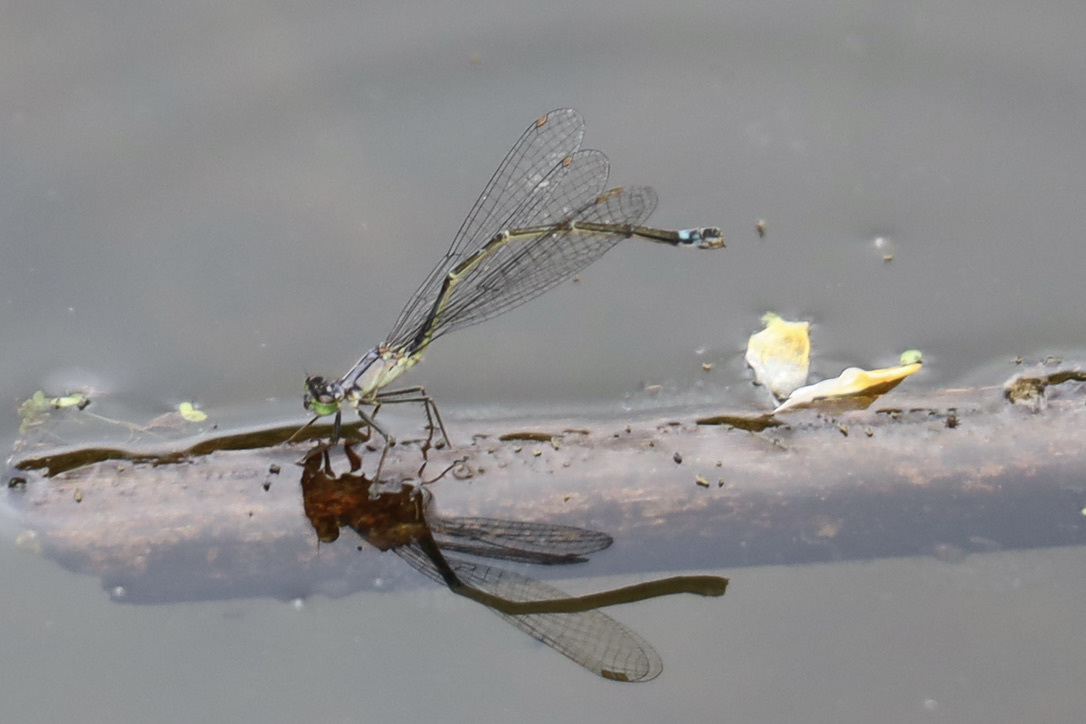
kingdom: Animalia
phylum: Arthropoda
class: Insecta
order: Odonata
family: Coenagrionidae
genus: Ischnura
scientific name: Ischnura cervula
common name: Pacific forktail
